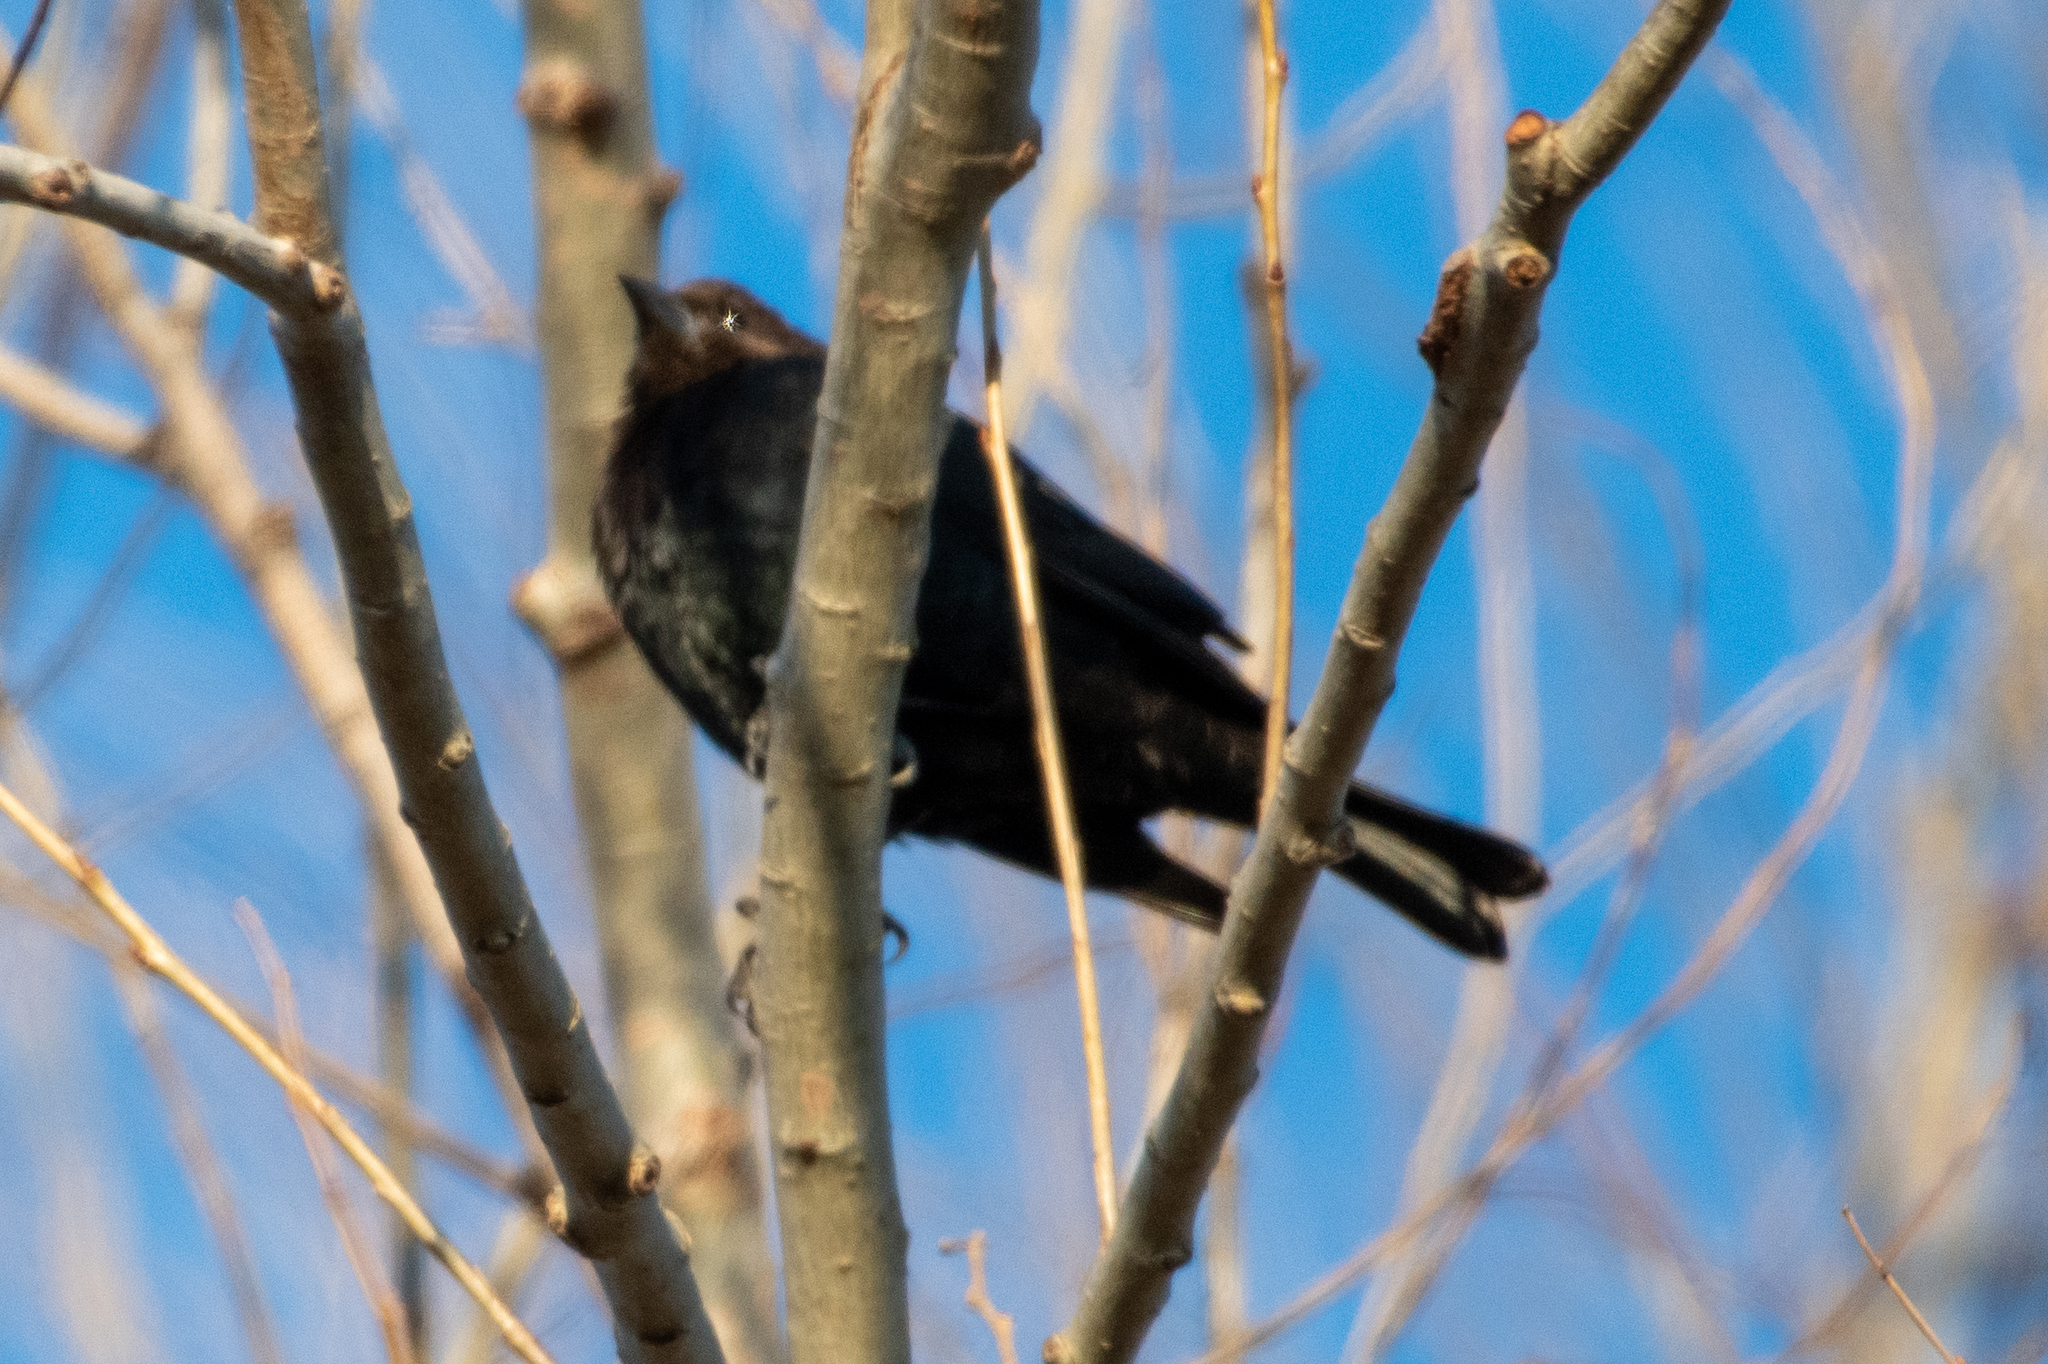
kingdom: Animalia
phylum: Chordata
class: Aves
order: Passeriformes
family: Icteridae
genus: Molothrus
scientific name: Molothrus ater
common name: Brown-headed cowbird
